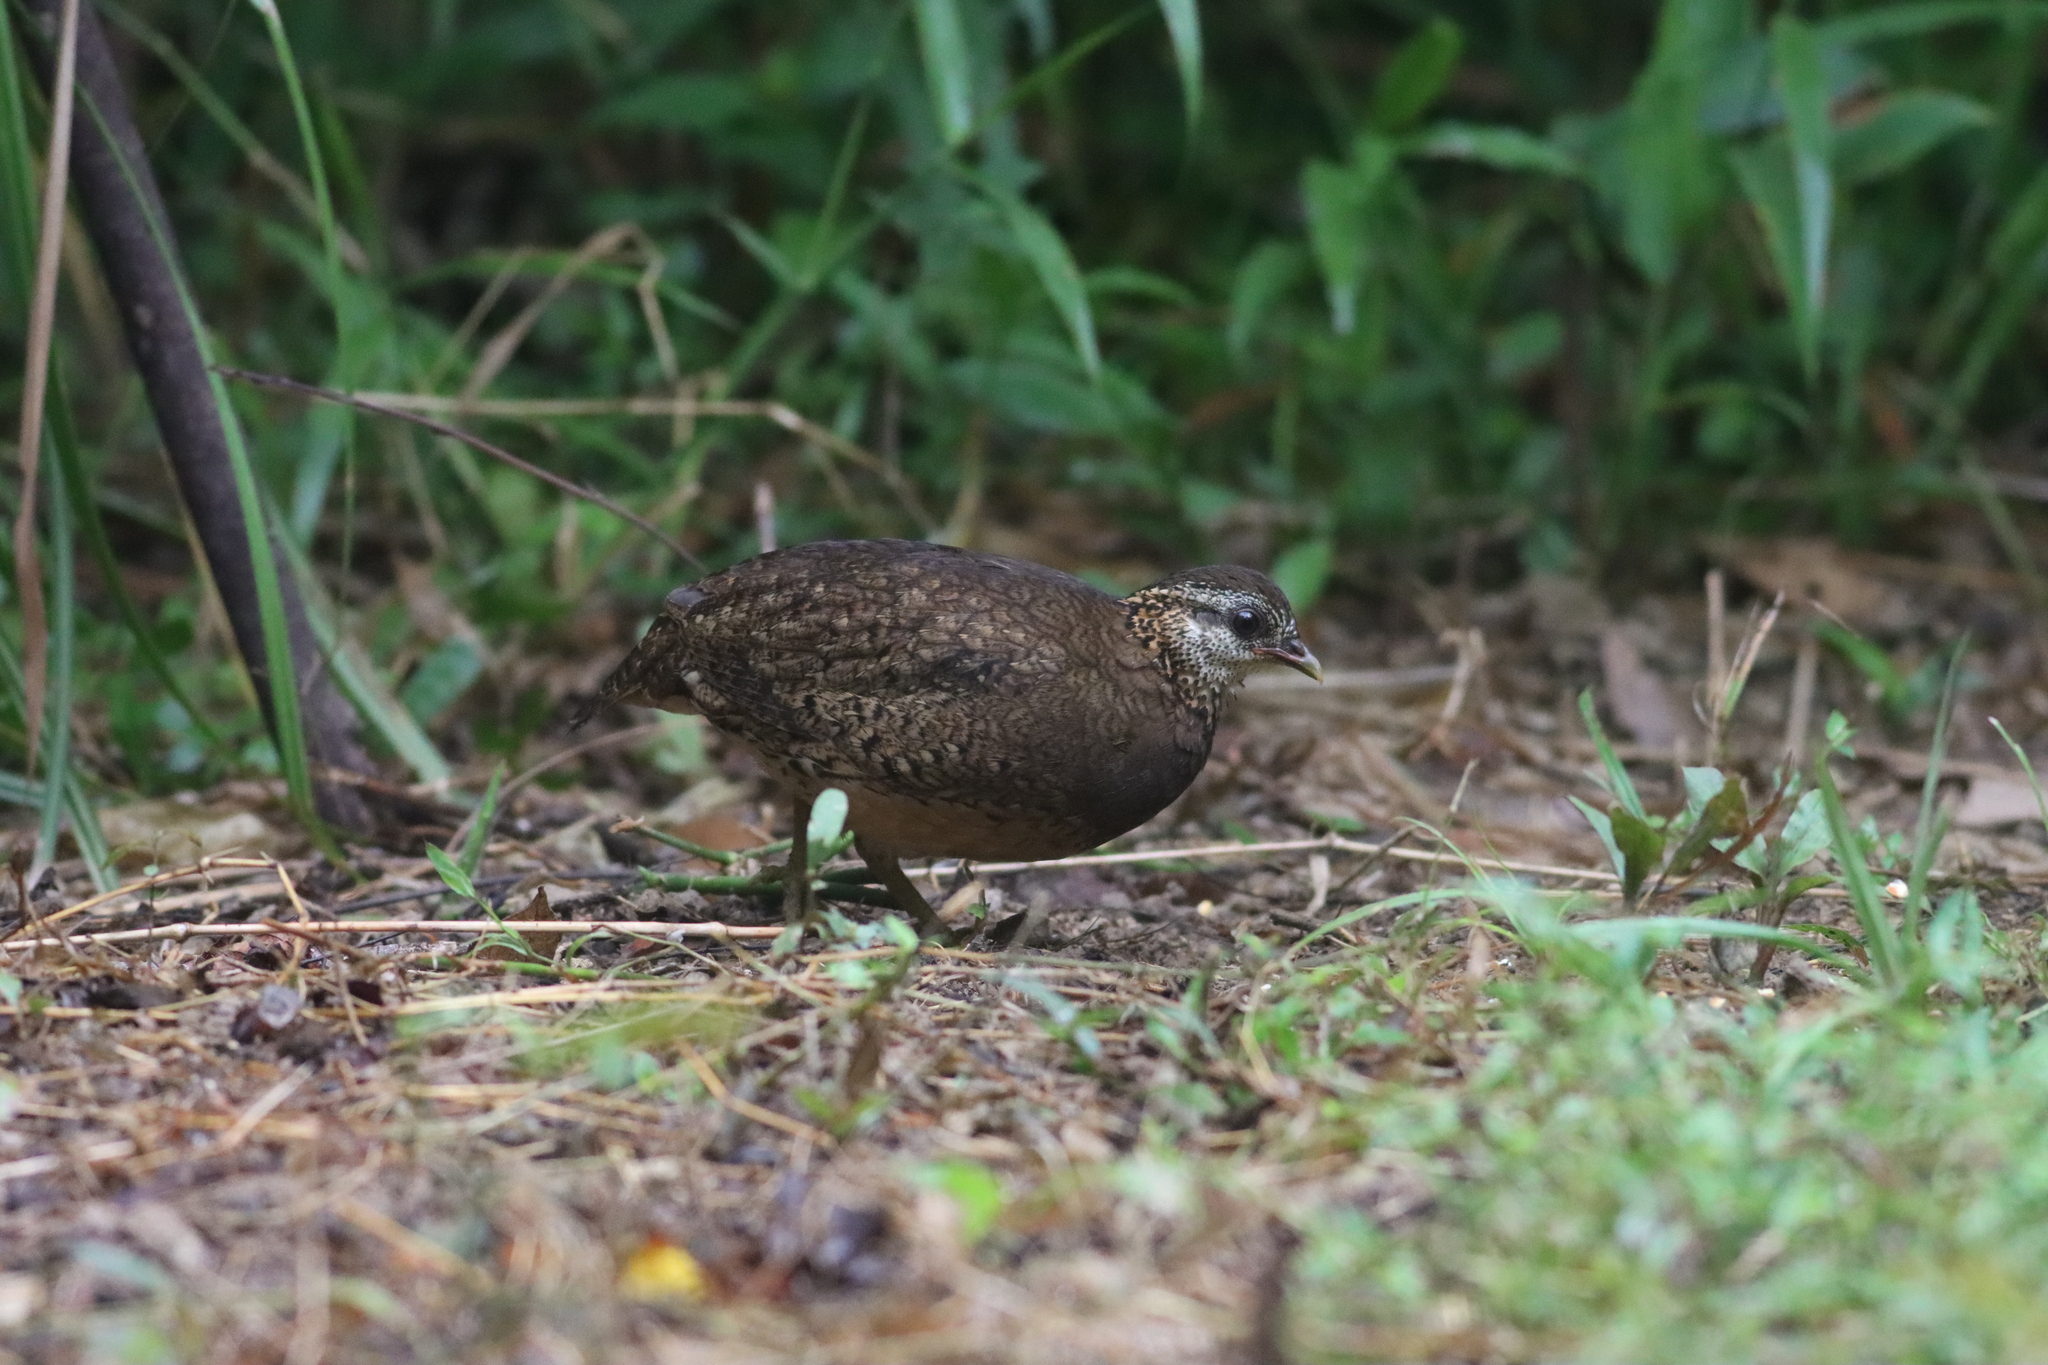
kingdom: Animalia
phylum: Chordata
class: Aves
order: Galliformes
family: Phasianidae
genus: Tropicoperdix
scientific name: Tropicoperdix chloropus
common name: Green-legged partridge
